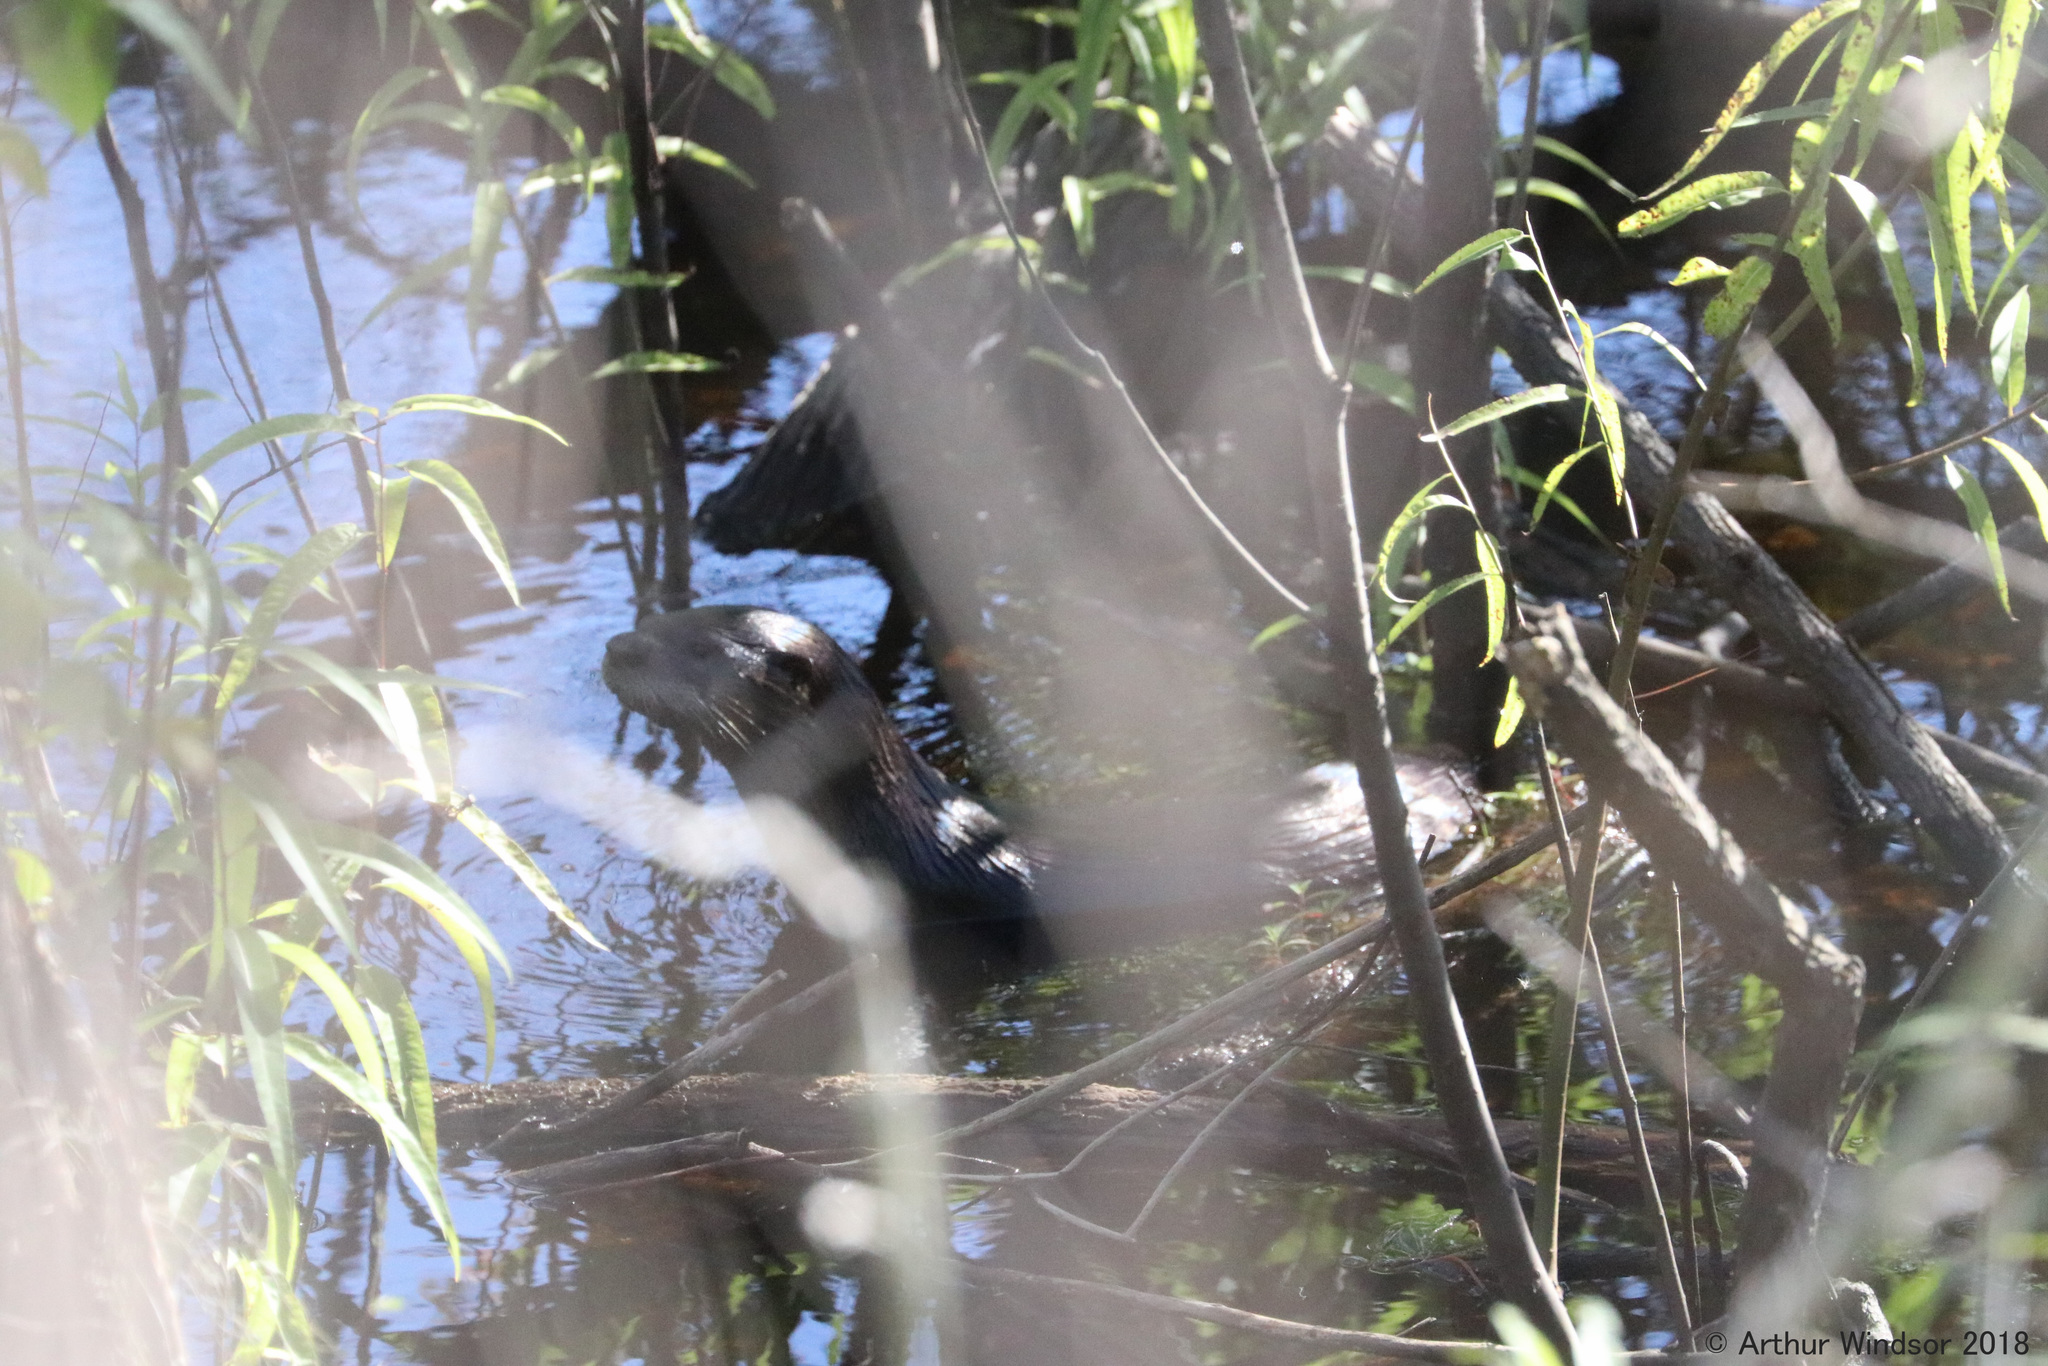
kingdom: Animalia
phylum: Chordata
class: Mammalia
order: Carnivora
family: Mustelidae
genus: Lontra
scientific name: Lontra canadensis
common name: North american river otter
